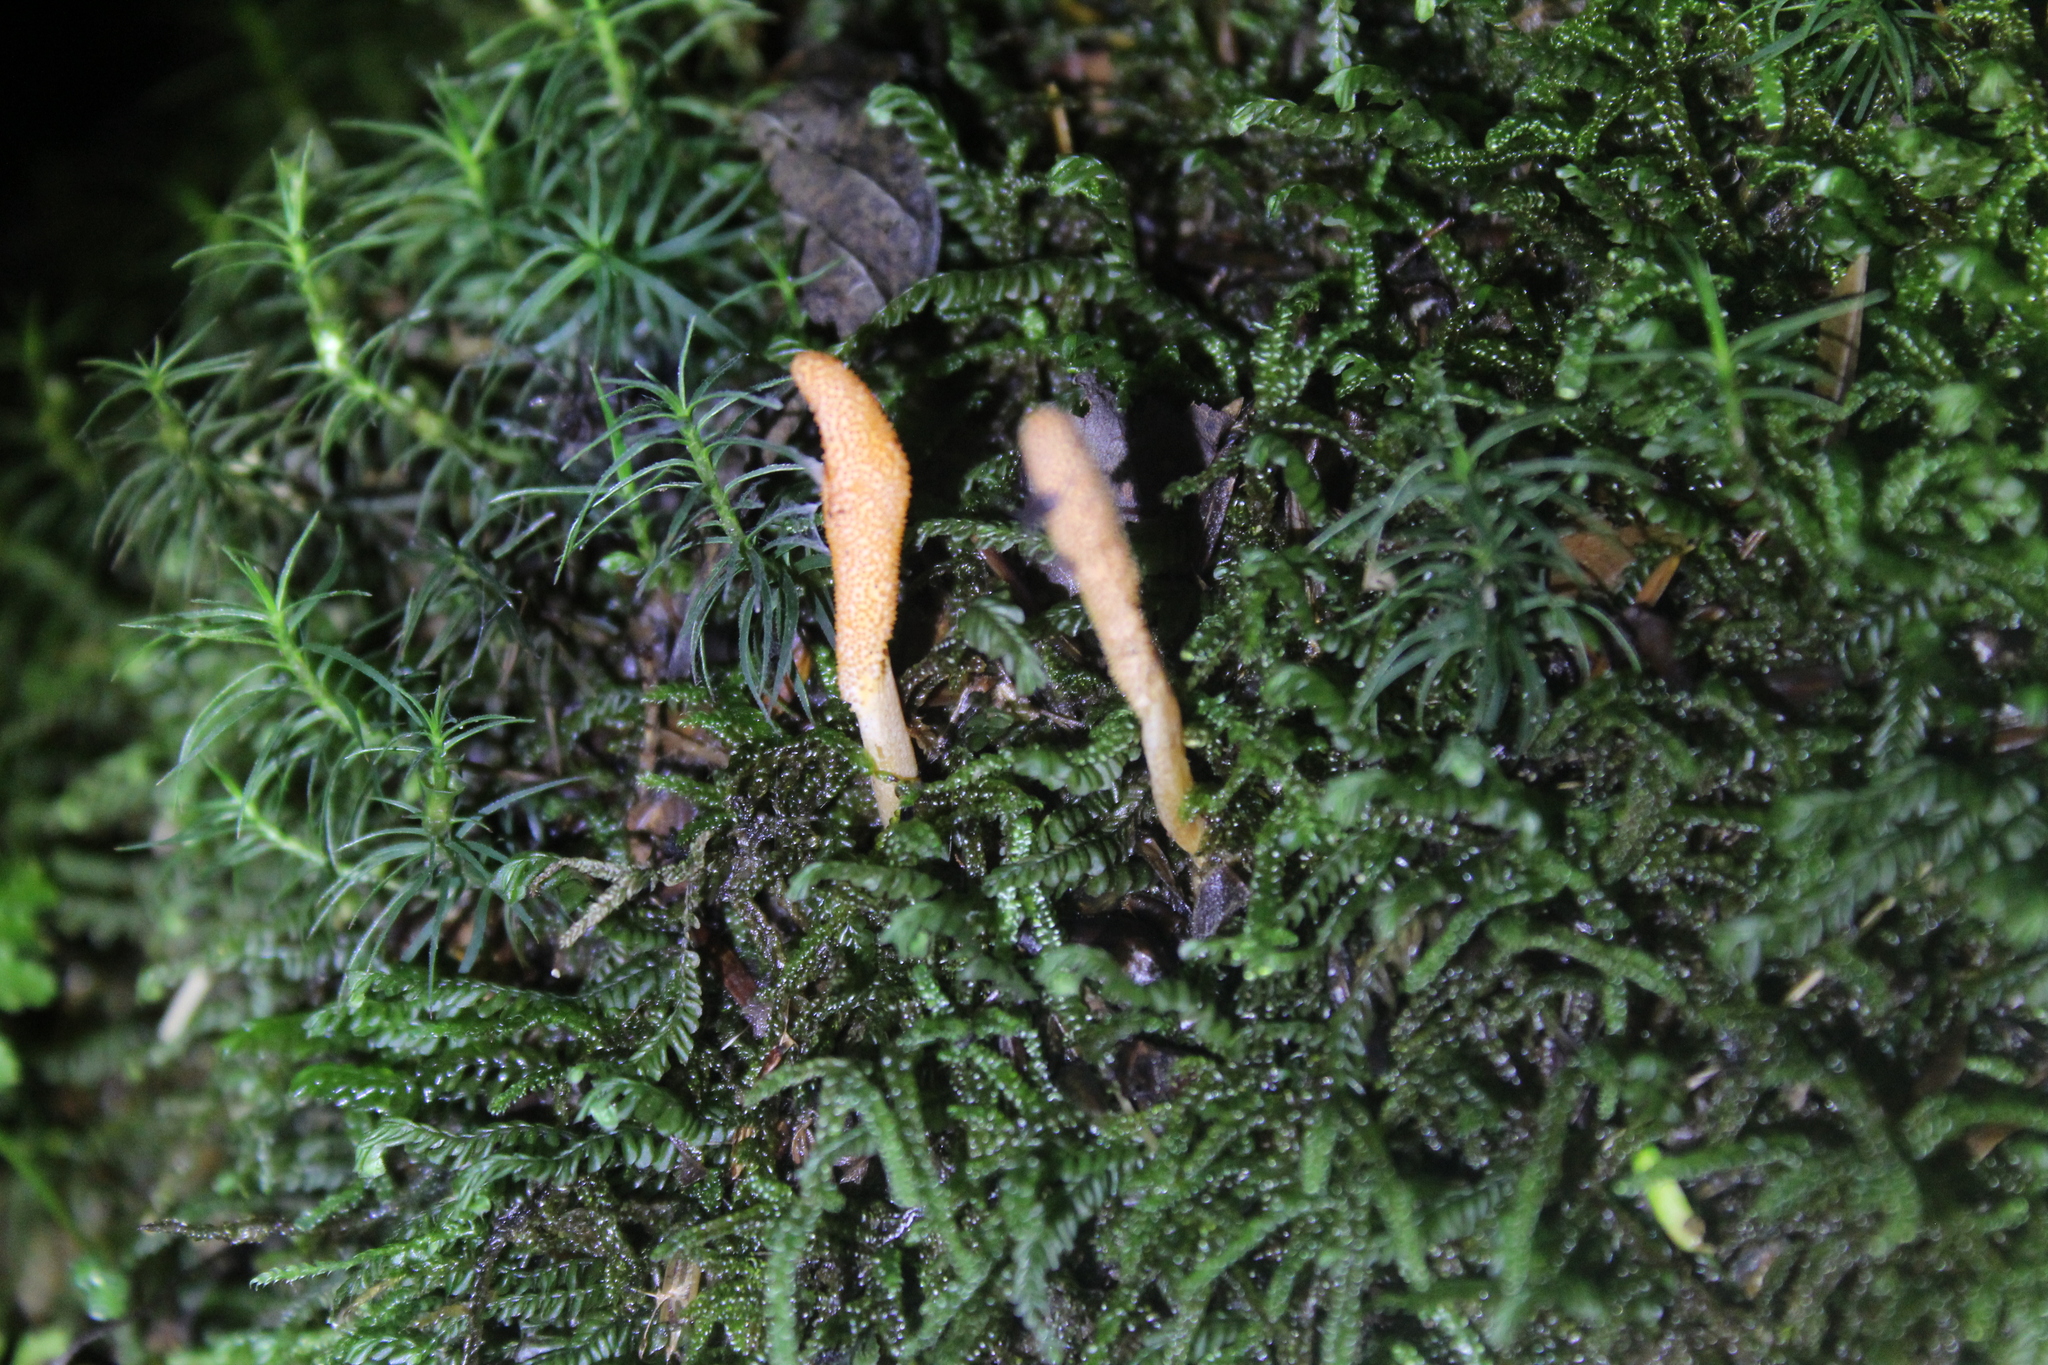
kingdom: Fungi
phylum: Ascomycota
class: Sordariomycetes
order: Hypocreales
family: Cordycipitaceae
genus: Cordyceps
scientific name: Cordyceps militaris
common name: Scarlet caterpillar fungus
